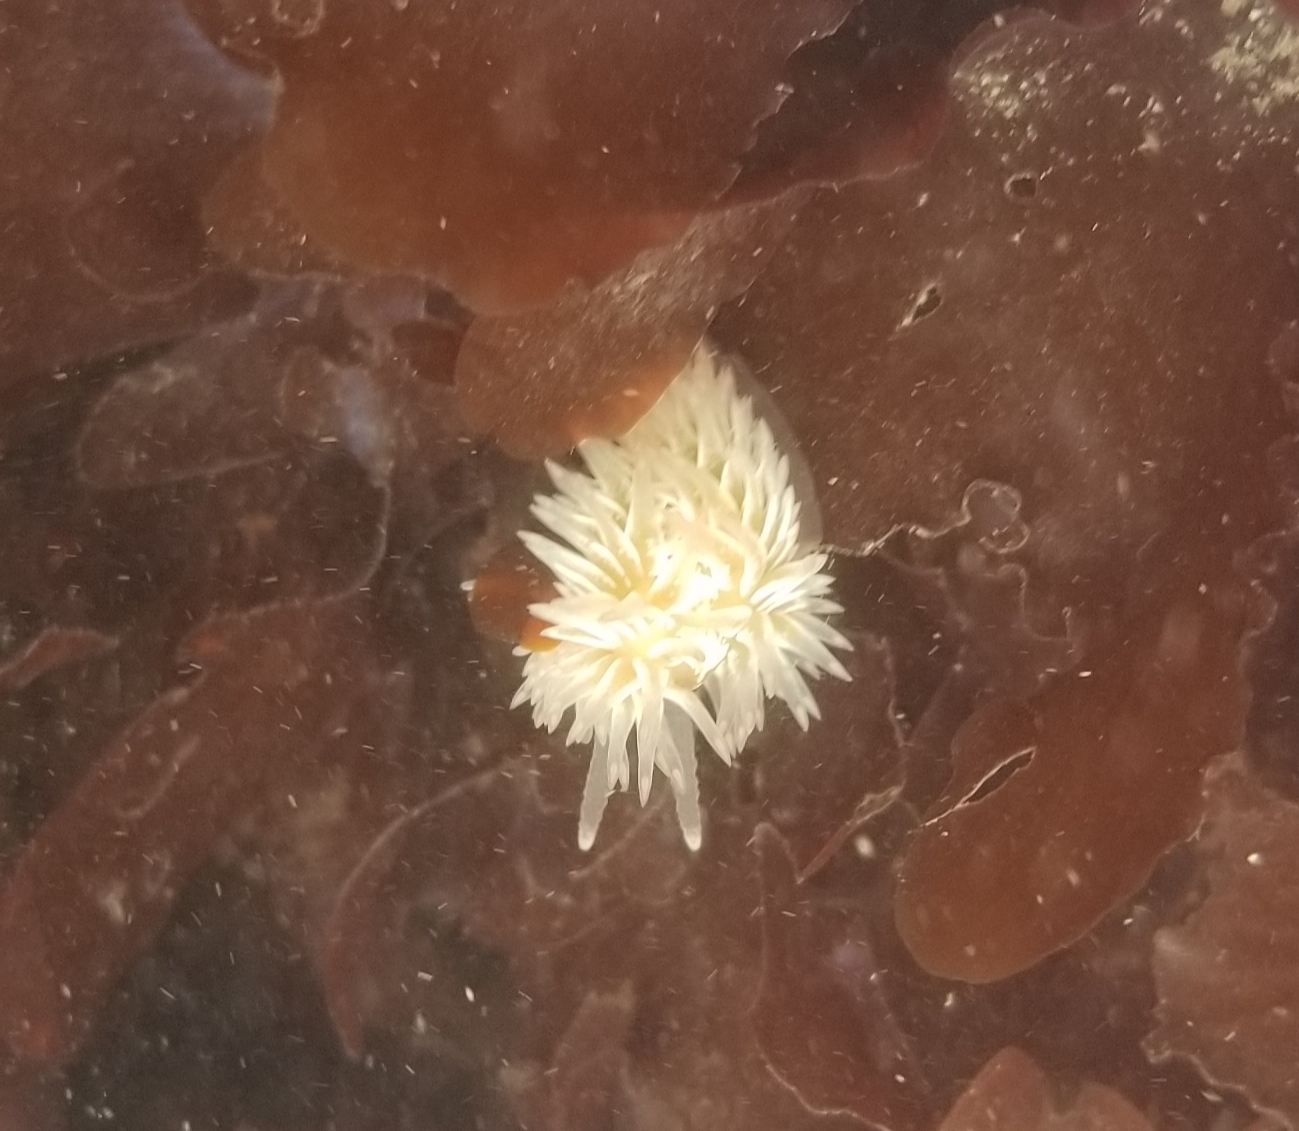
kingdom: Animalia
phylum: Mollusca
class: Gastropoda
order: Nudibranchia
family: Aeolidiidae
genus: Aeolidia
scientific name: Aeolidia loui
